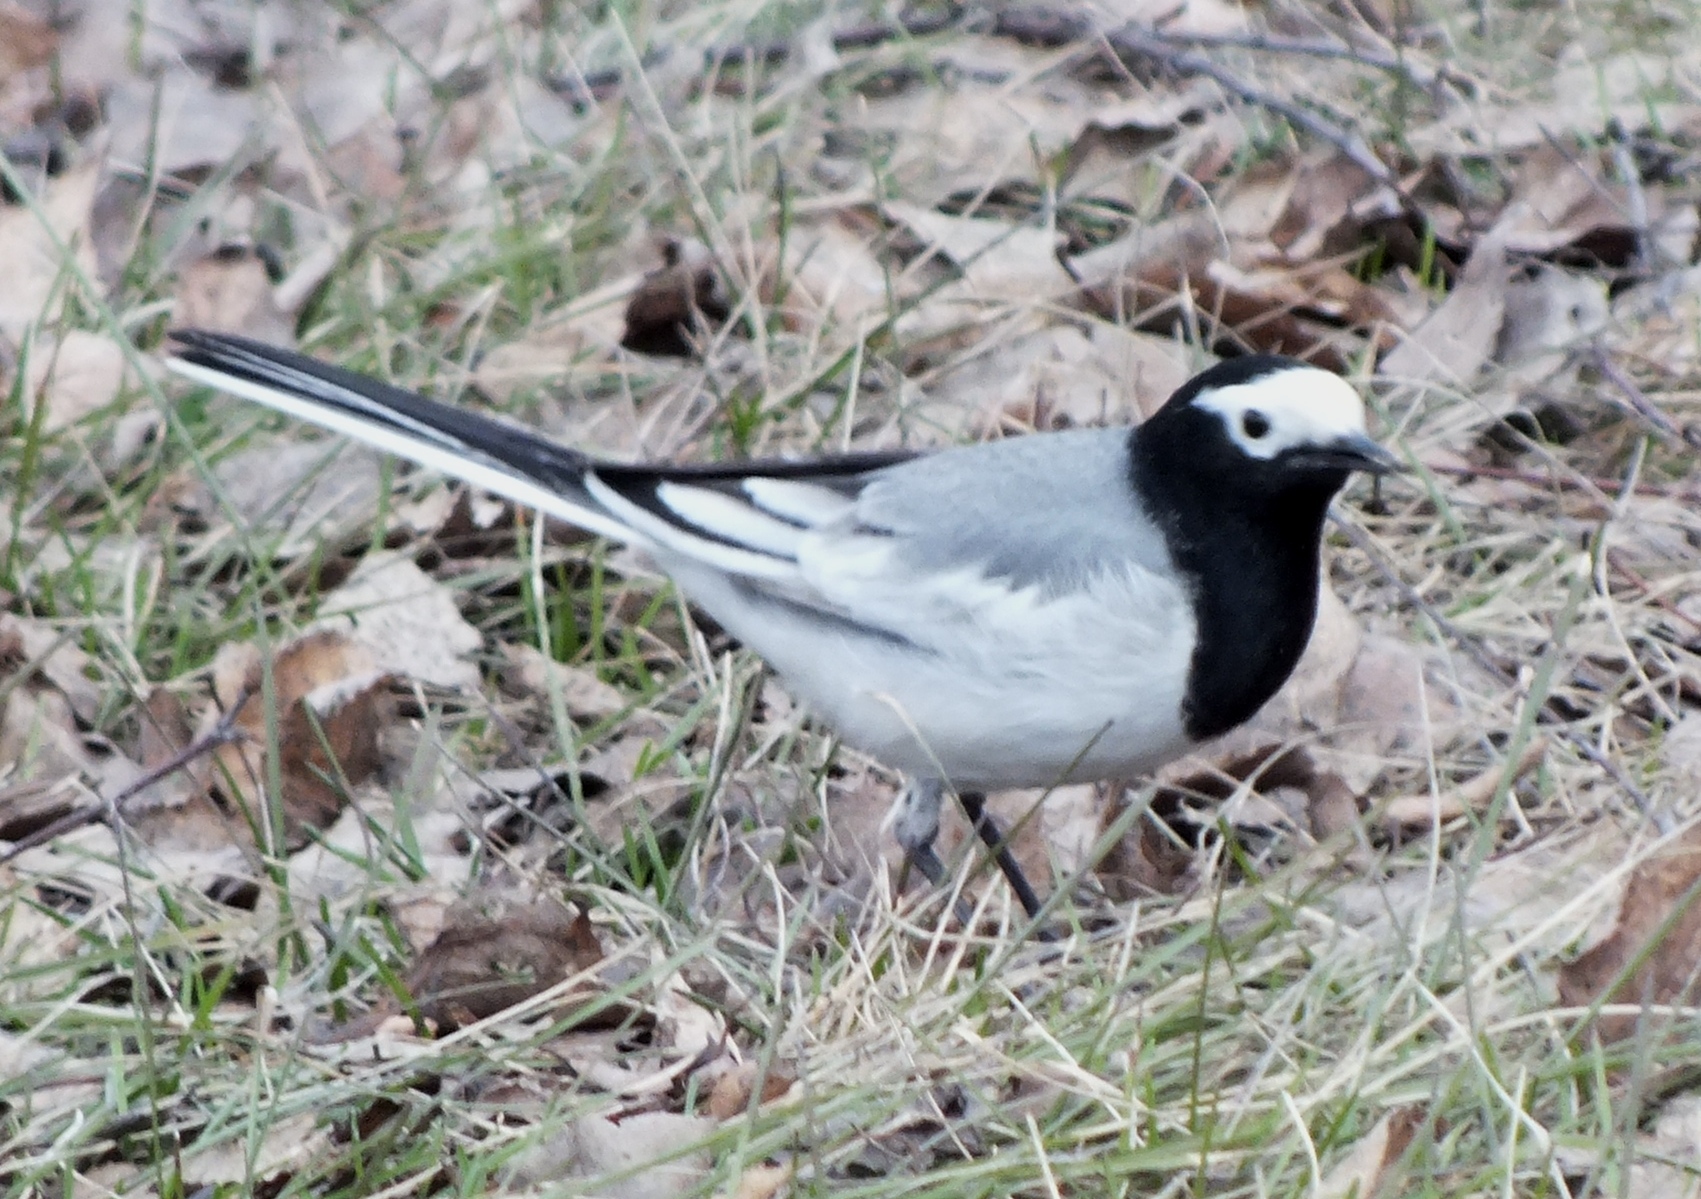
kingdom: Animalia
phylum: Chordata
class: Aves
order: Passeriformes
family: Motacillidae
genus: Motacilla
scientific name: Motacilla alba
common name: White wagtail
